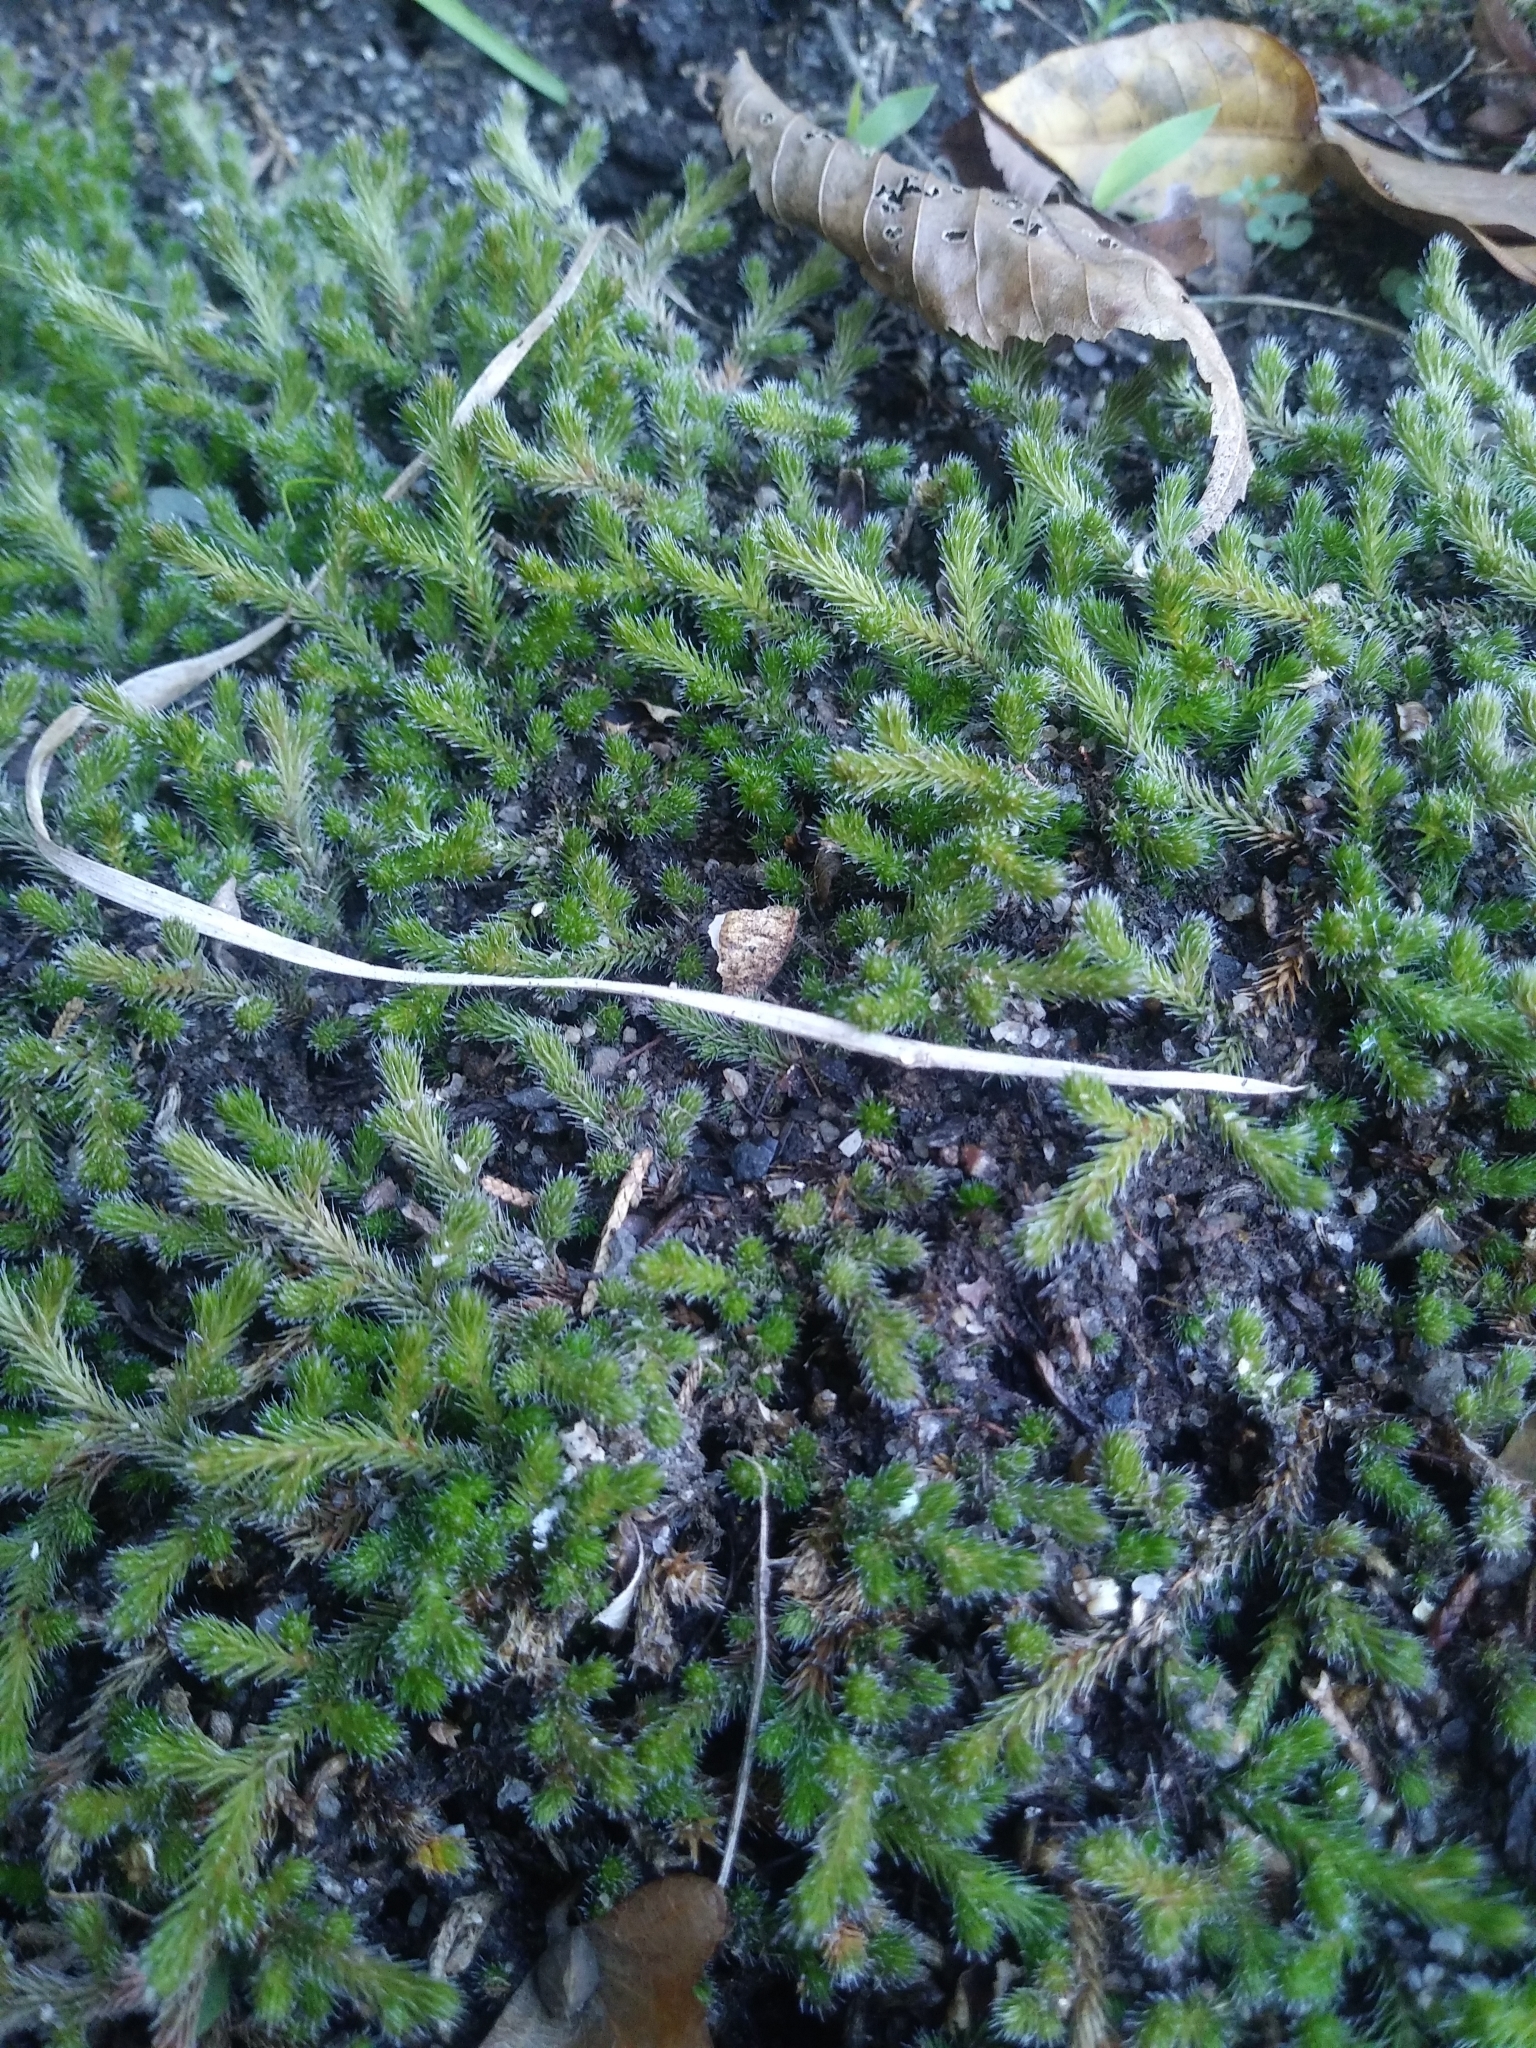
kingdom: Plantae
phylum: Tracheophyta
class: Lycopodiopsida
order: Selaginellales
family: Selaginellaceae
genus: Selaginella
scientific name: Selaginella rupestris
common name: Dwarf spikemoss
